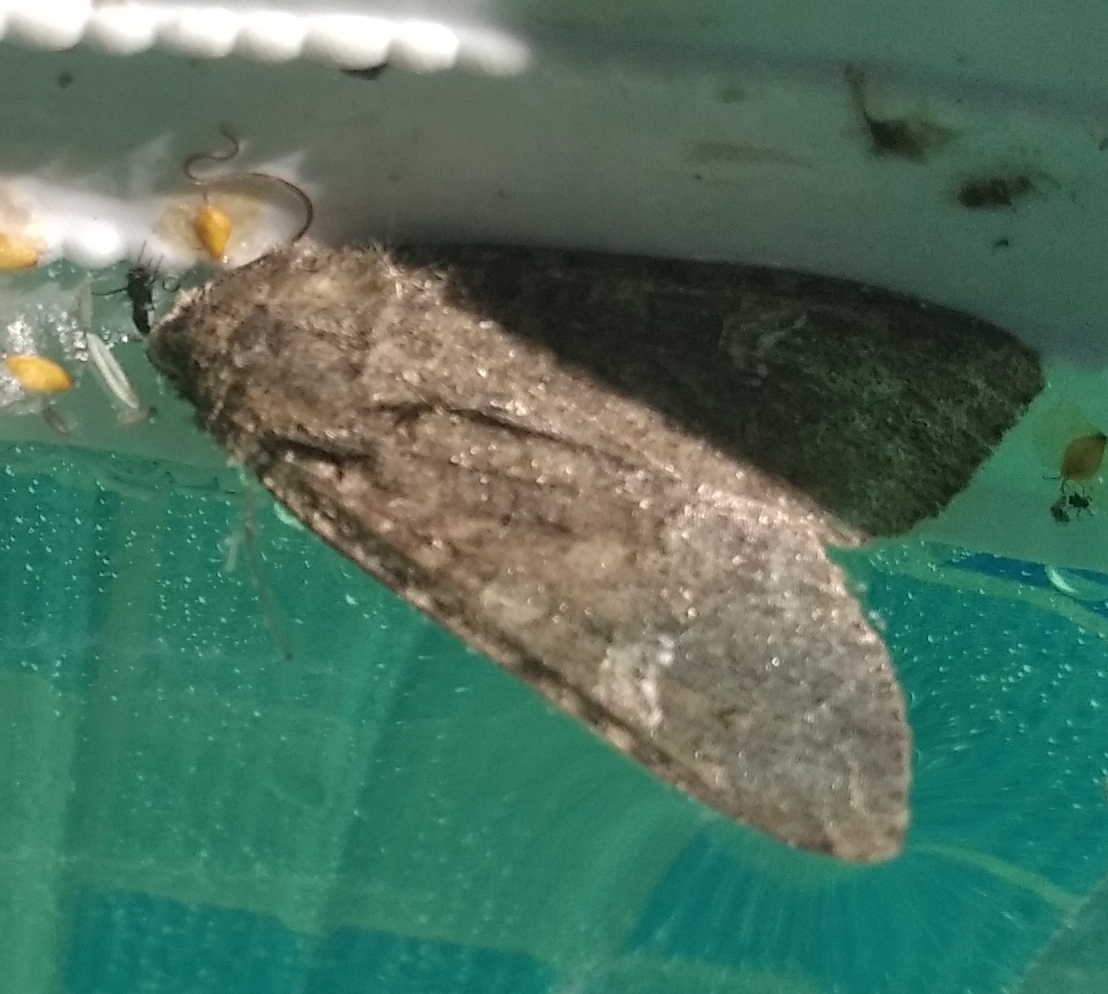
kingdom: Animalia
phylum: Arthropoda
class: Insecta
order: Lepidoptera
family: Noctuidae
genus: Mamestra
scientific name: Mamestra brassicae
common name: Cabbage moth
